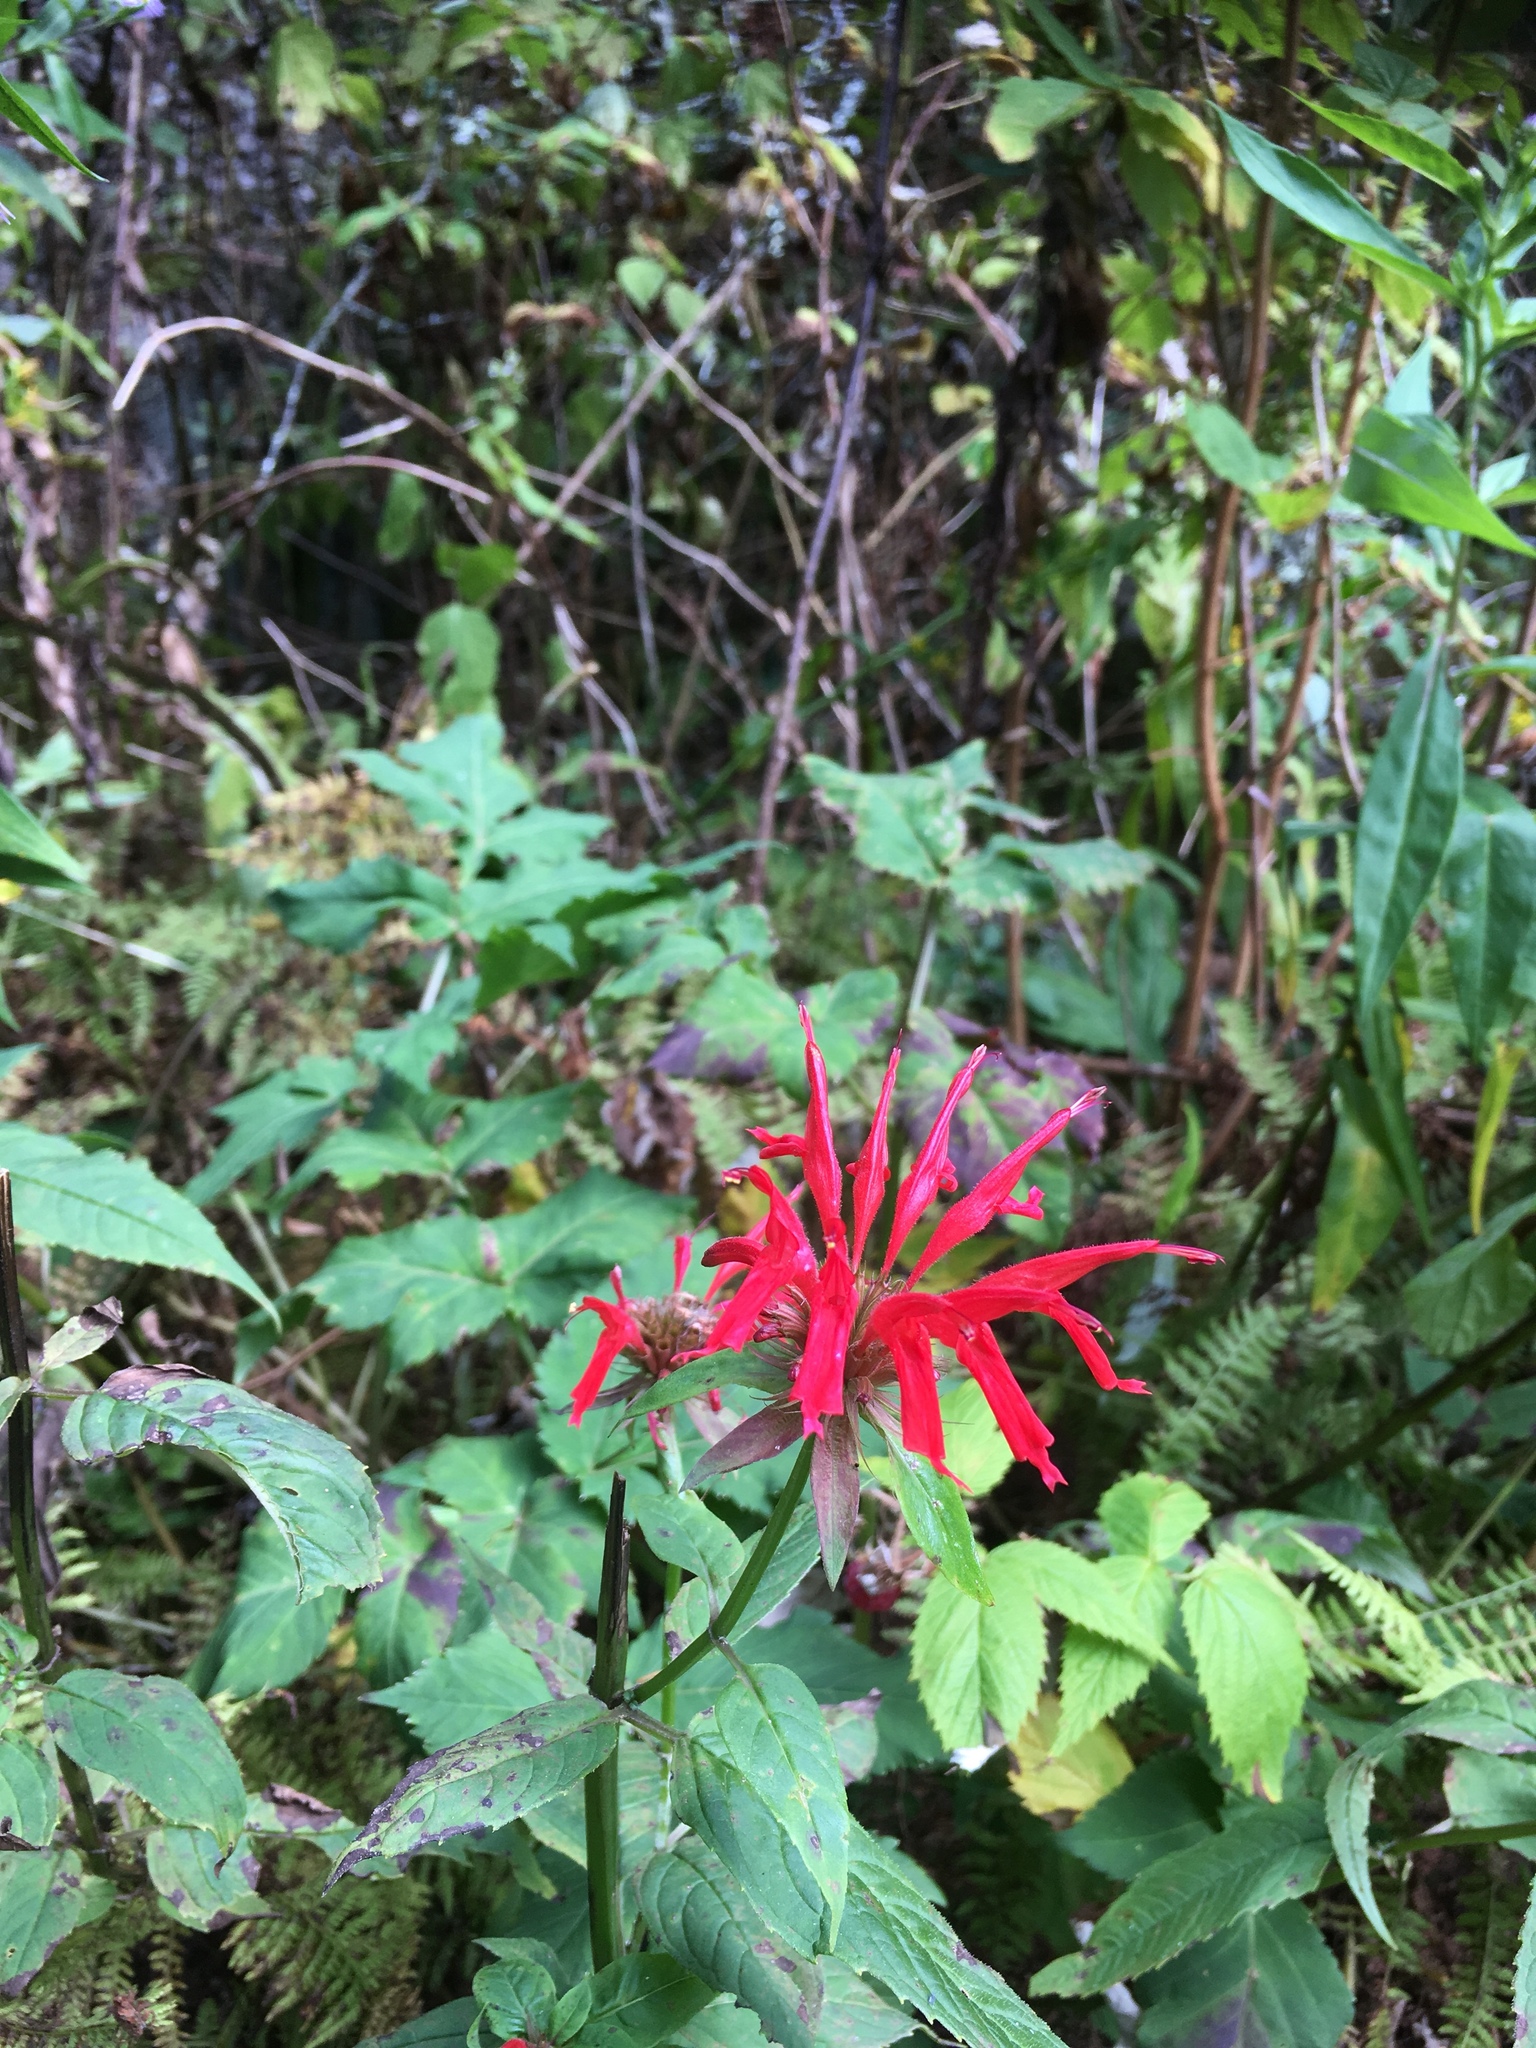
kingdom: Plantae
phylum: Tracheophyta
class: Magnoliopsida
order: Lamiales
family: Lamiaceae
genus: Monarda
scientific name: Monarda didyma
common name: Beebalm
